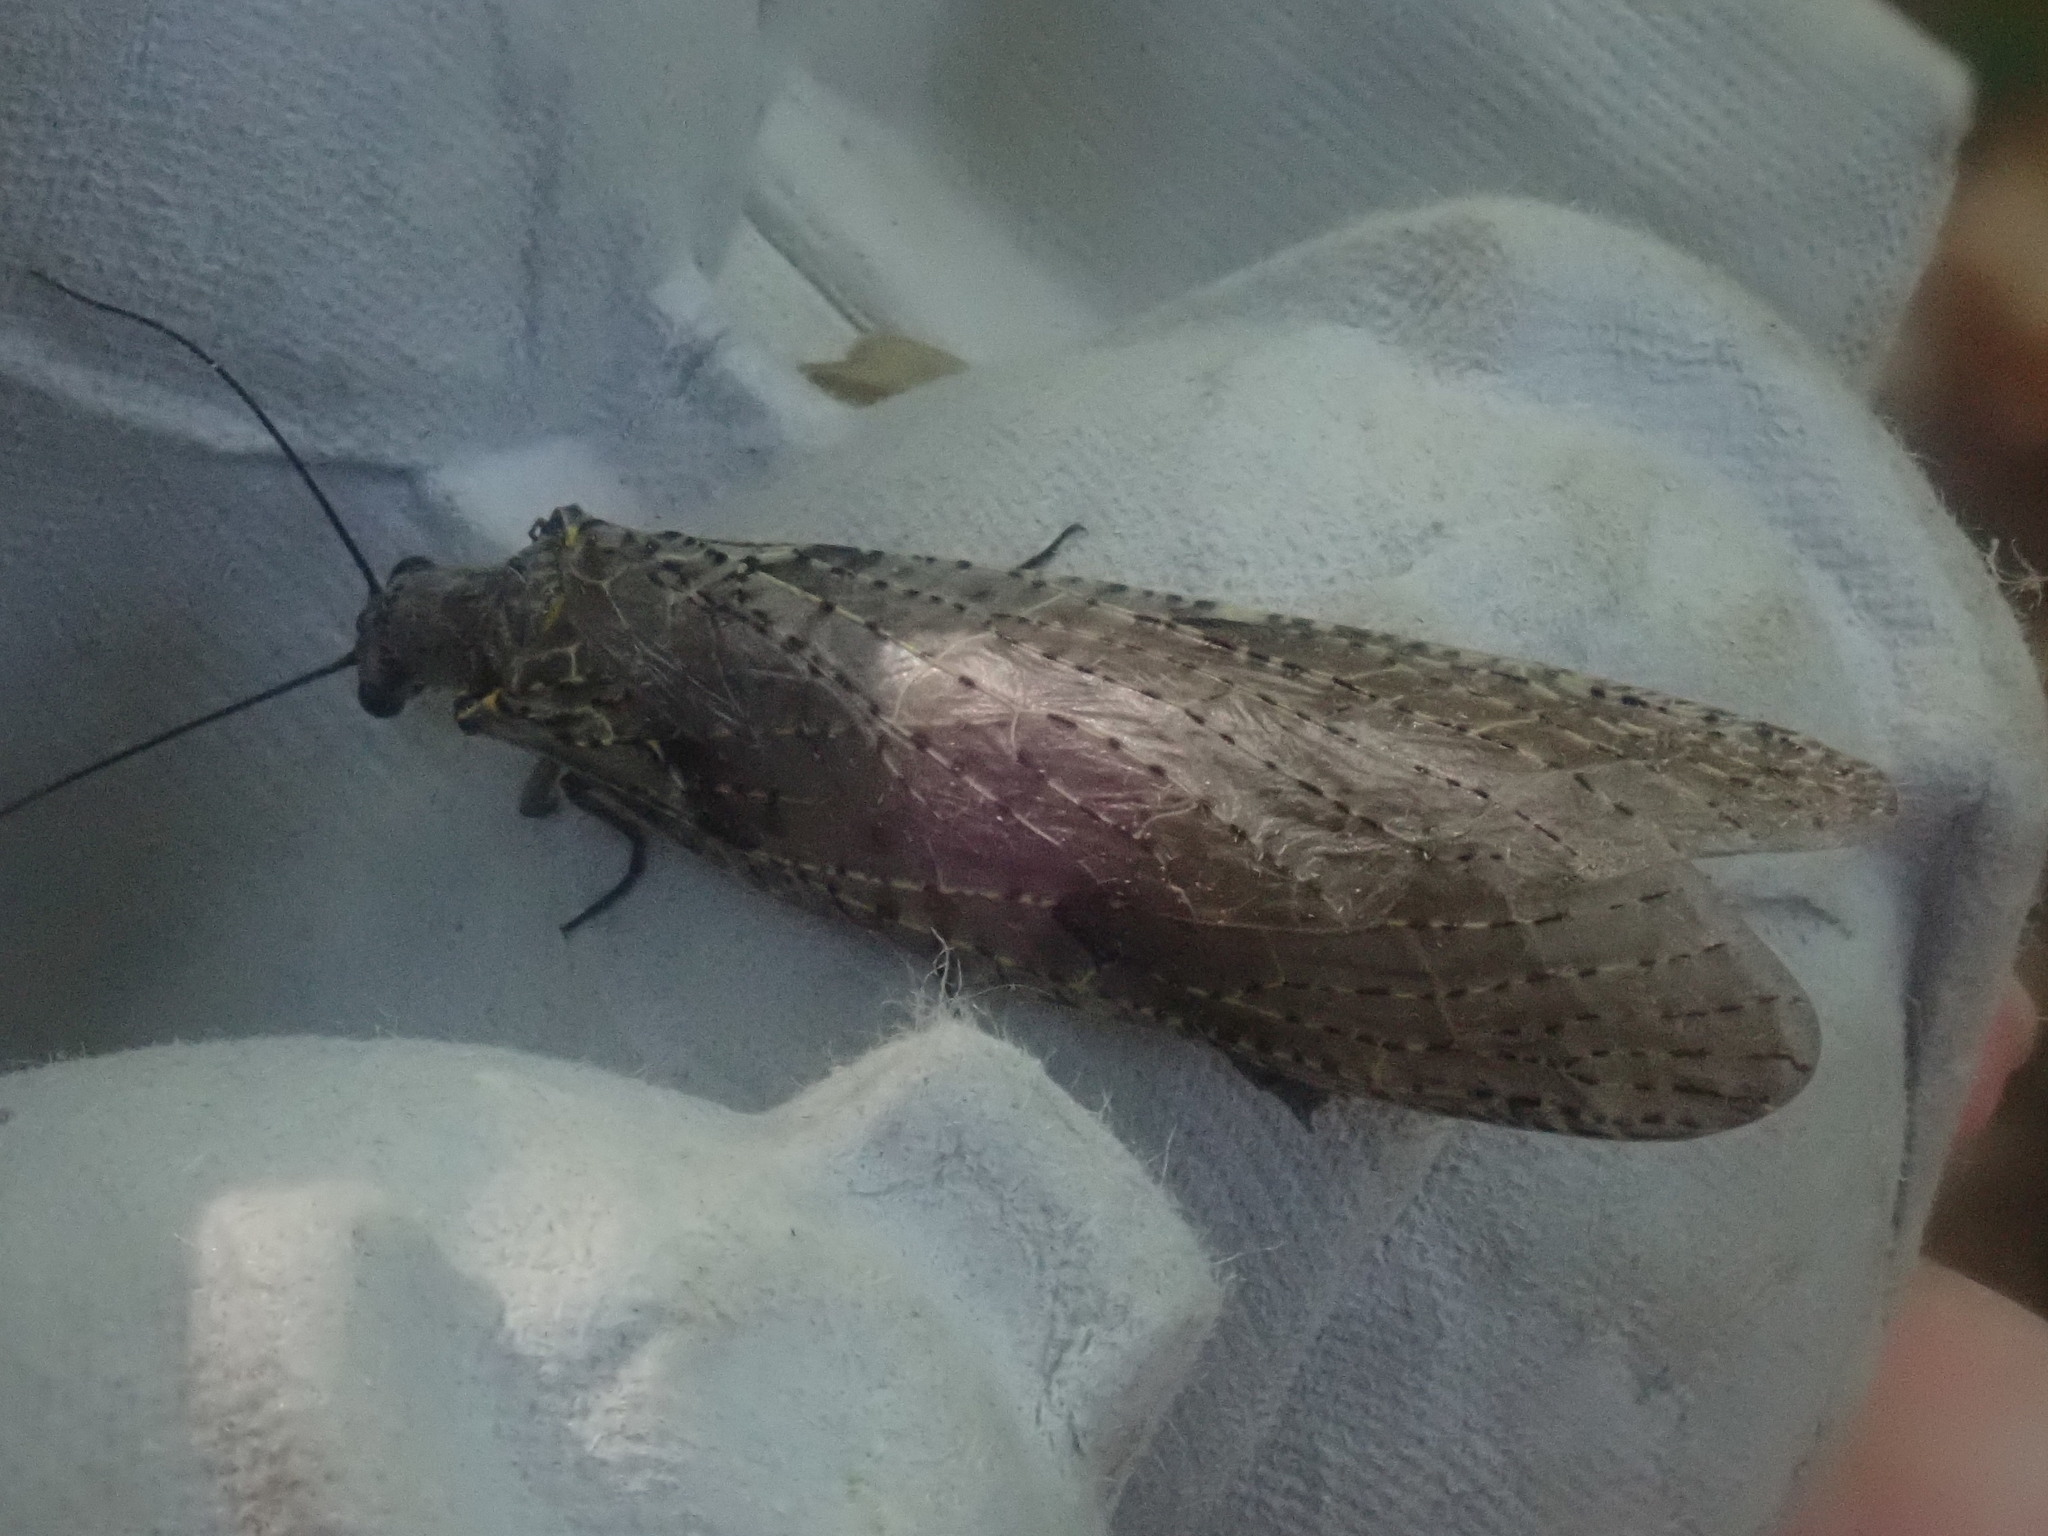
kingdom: Animalia
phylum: Arthropoda
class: Insecta
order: Megaloptera
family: Corydalidae
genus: Chauliodes
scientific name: Chauliodes rastricornis
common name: Spring fishfly
